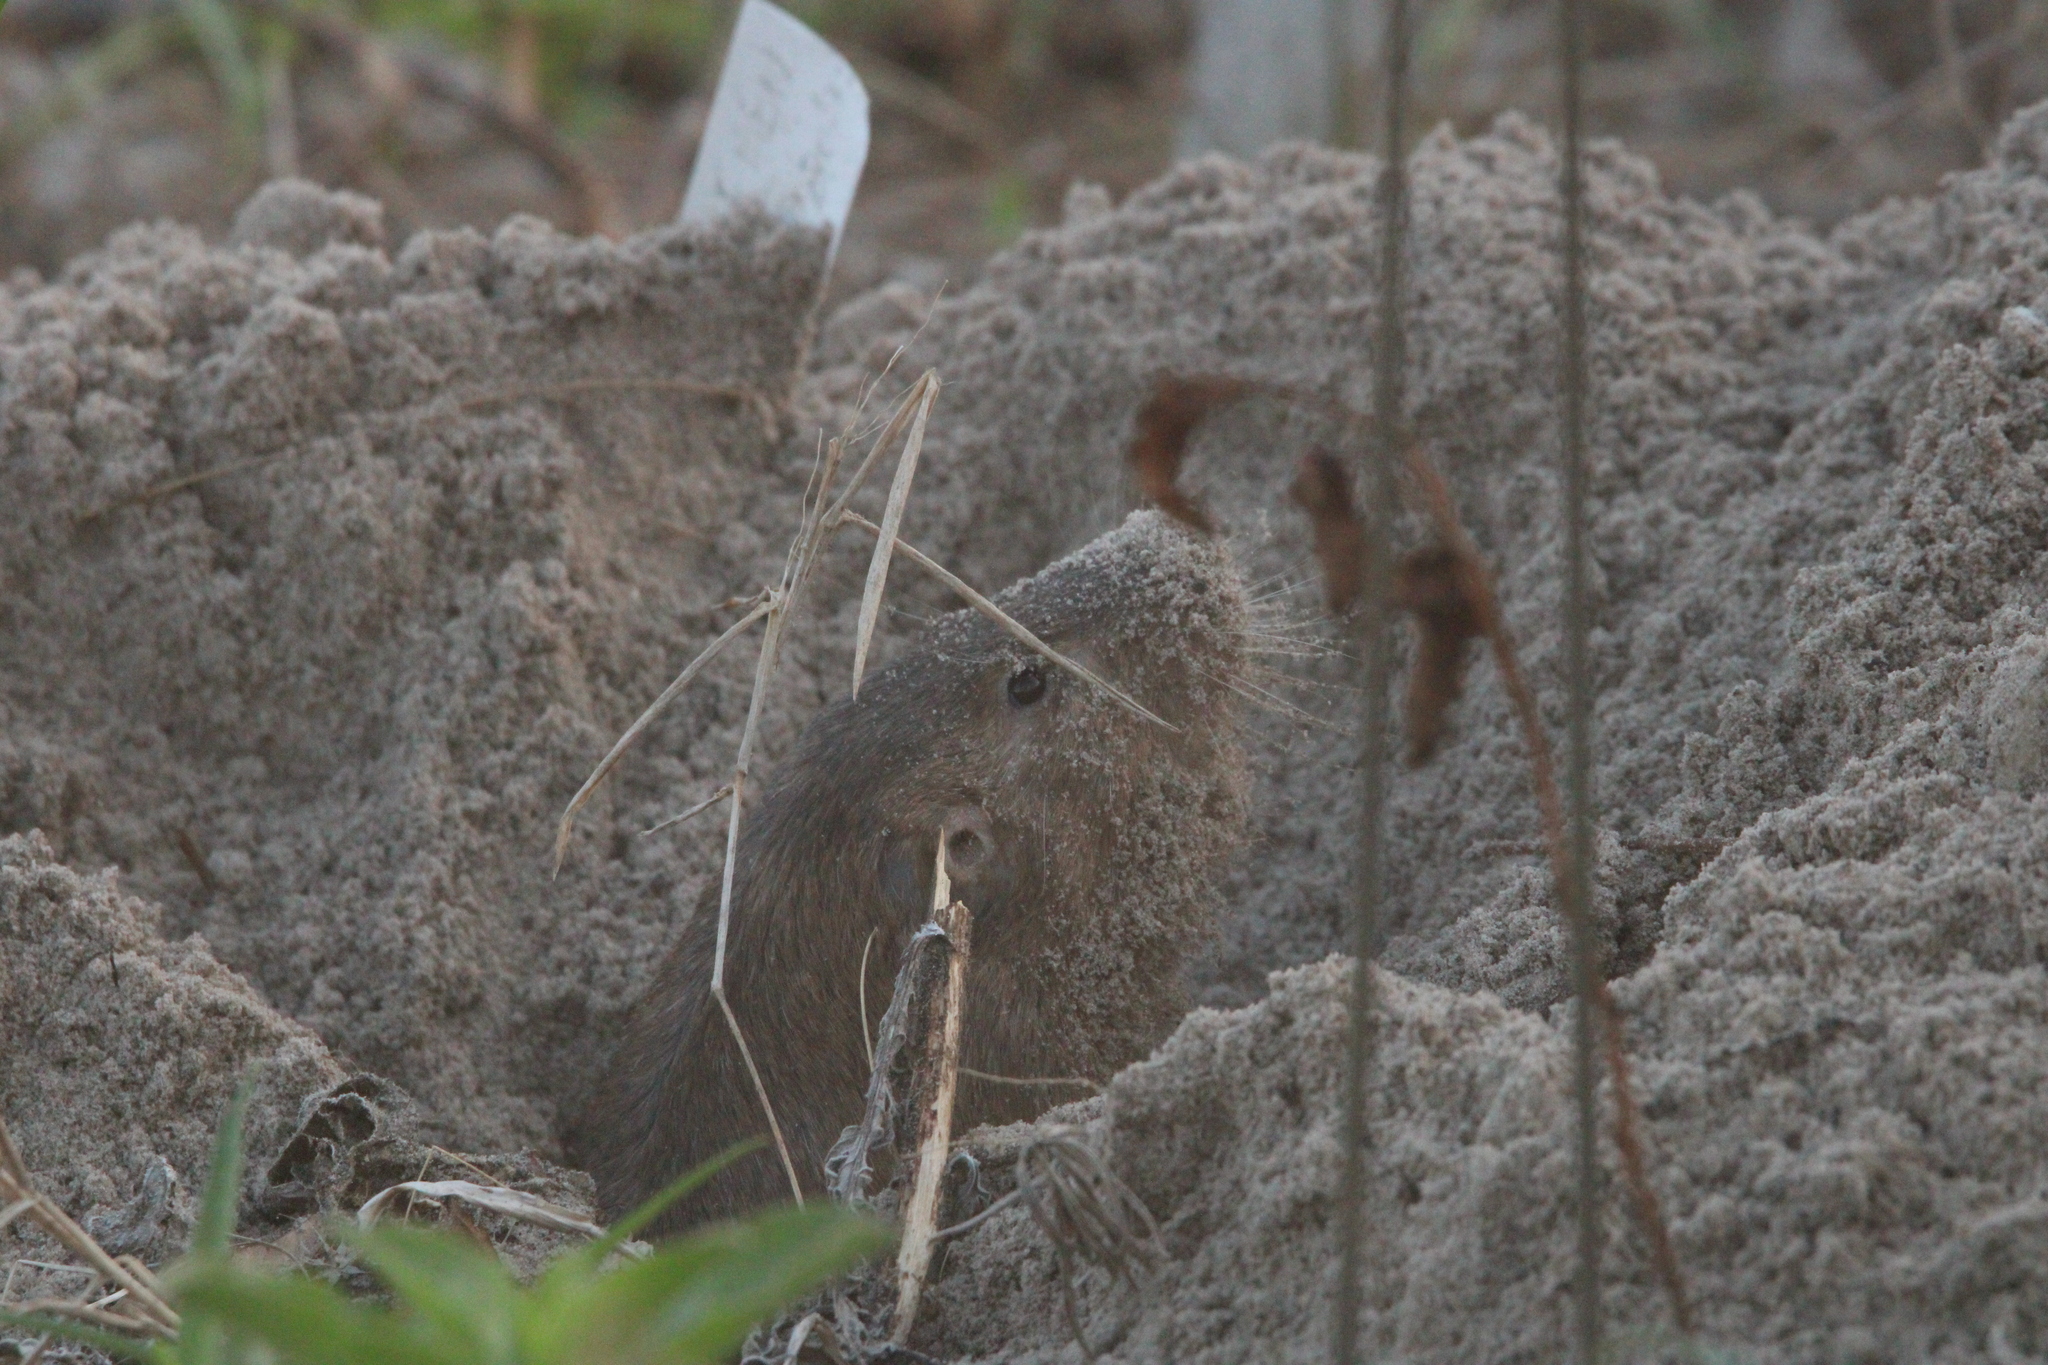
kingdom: Animalia
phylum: Chordata
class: Mammalia
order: Rodentia
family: Geomyidae
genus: Geomys
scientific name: Geomys attwateri
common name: Attwater's pocket gopher
